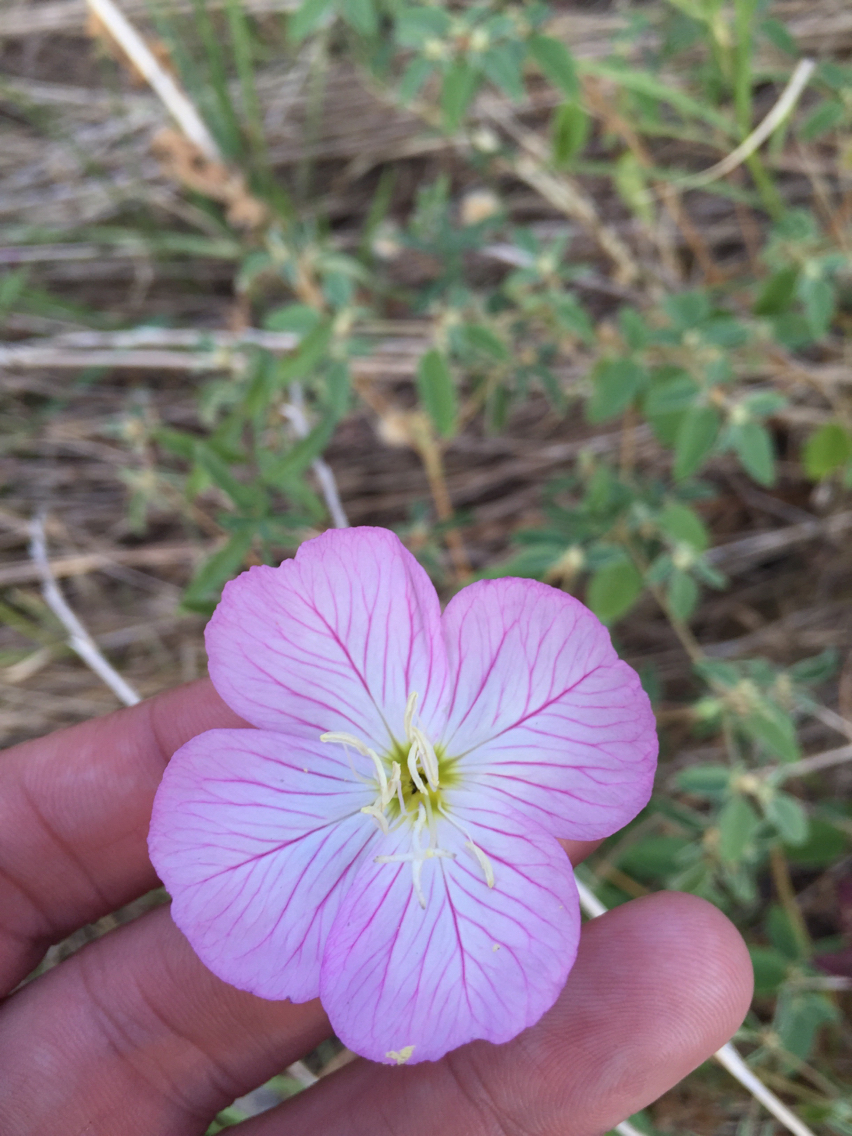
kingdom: Plantae
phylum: Tracheophyta
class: Magnoliopsida
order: Myrtales
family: Onagraceae
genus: Oenothera
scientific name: Oenothera speciosa
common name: White evening-primrose
